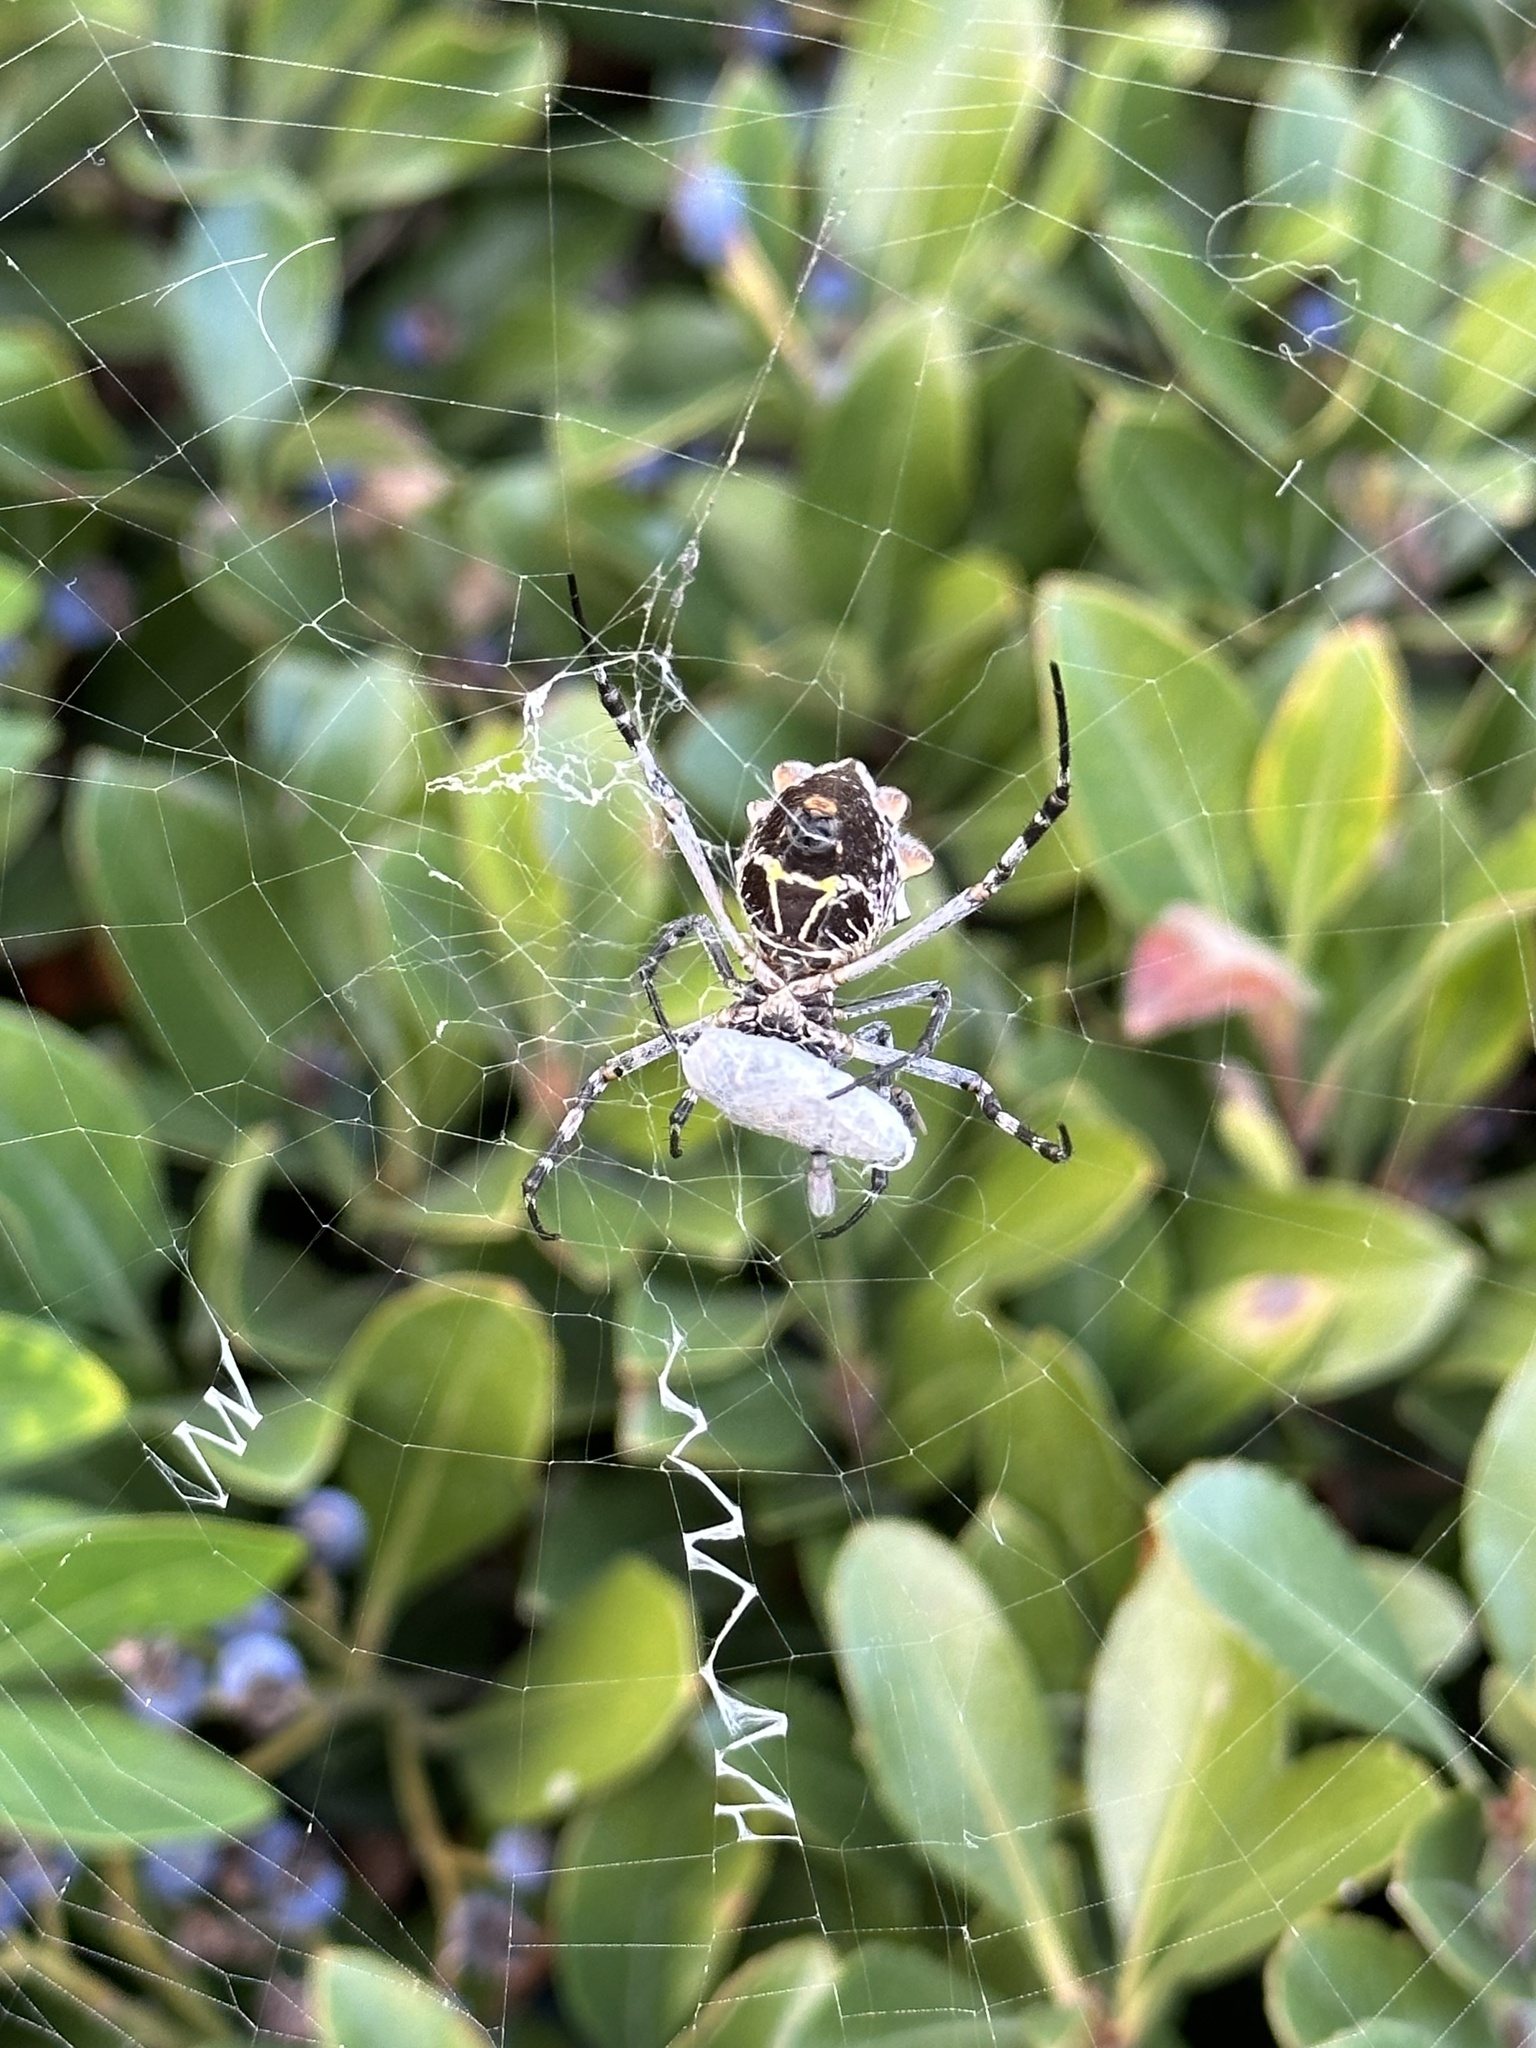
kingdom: Animalia
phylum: Arthropoda
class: Arachnida
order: Araneae
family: Araneidae
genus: Argiope
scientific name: Argiope argentata
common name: Orb weavers
